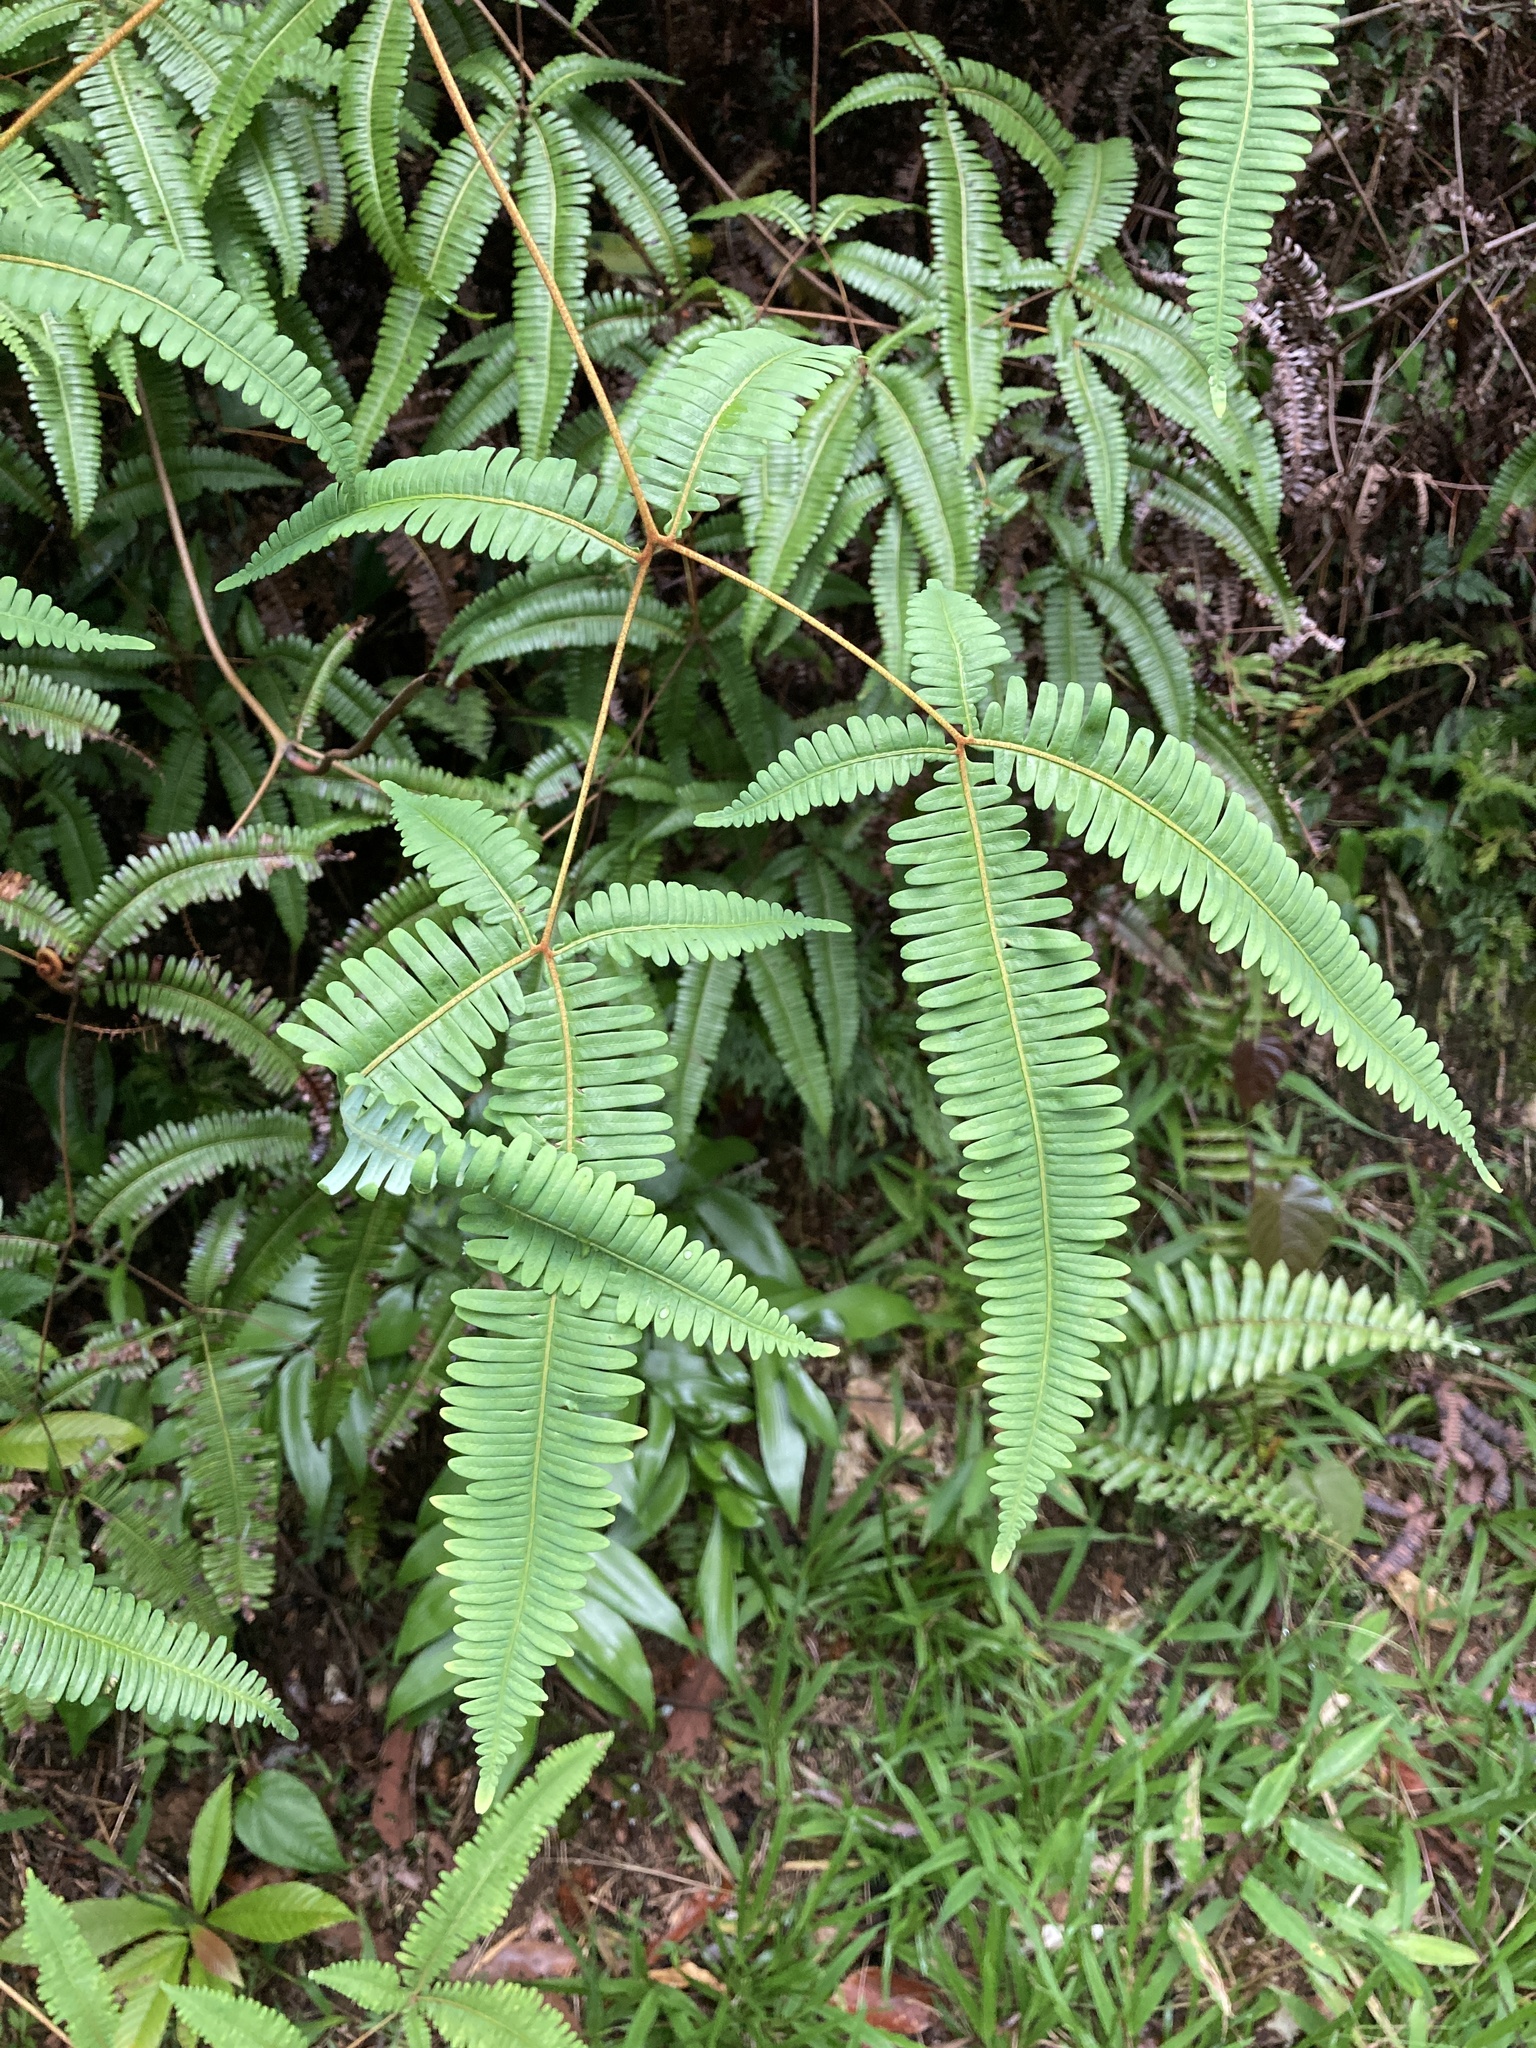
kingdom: Plantae
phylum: Tracheophyta
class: Polypodiopsida
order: Gleicheniales
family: Gleicheniaceae
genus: Dicranopteris
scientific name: Dicranopteris linearis
